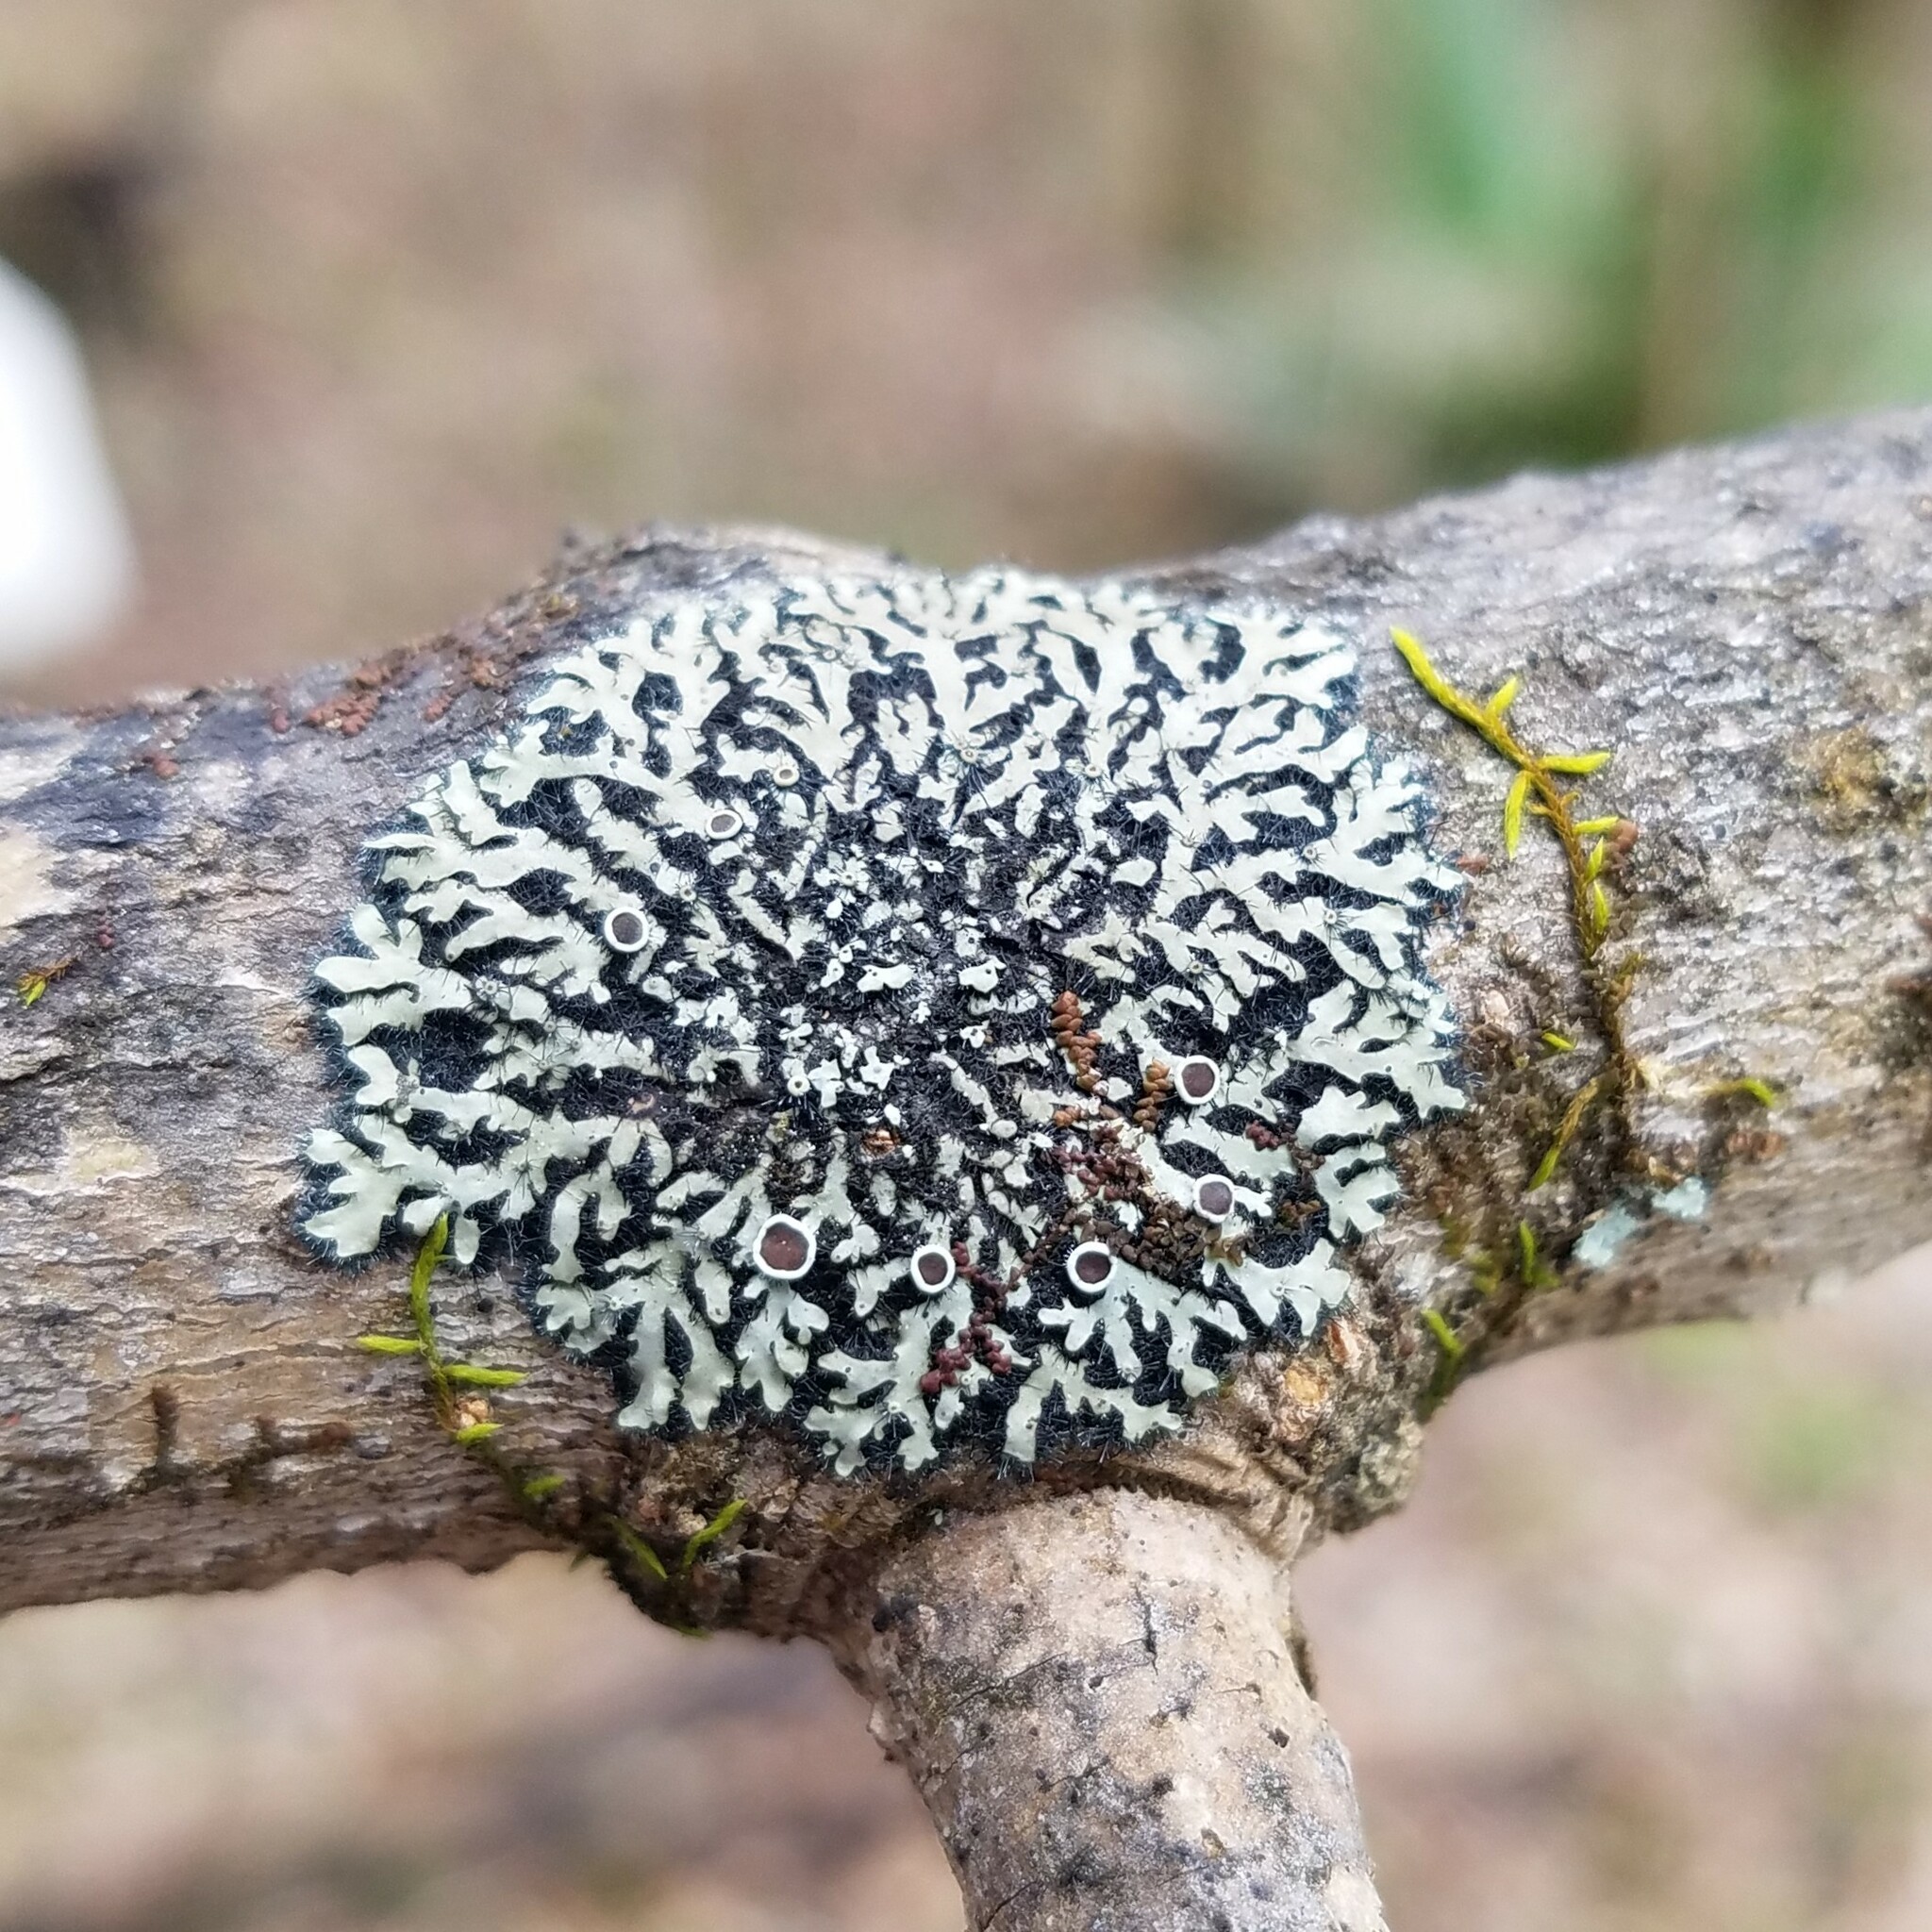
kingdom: Fungi
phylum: Ascomycota
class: Lecanoromycetes
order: Caliciales
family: Physciaceae
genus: Phaeophyscia
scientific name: Phaeophyscia ciliata
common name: Smooth shadow lichen
